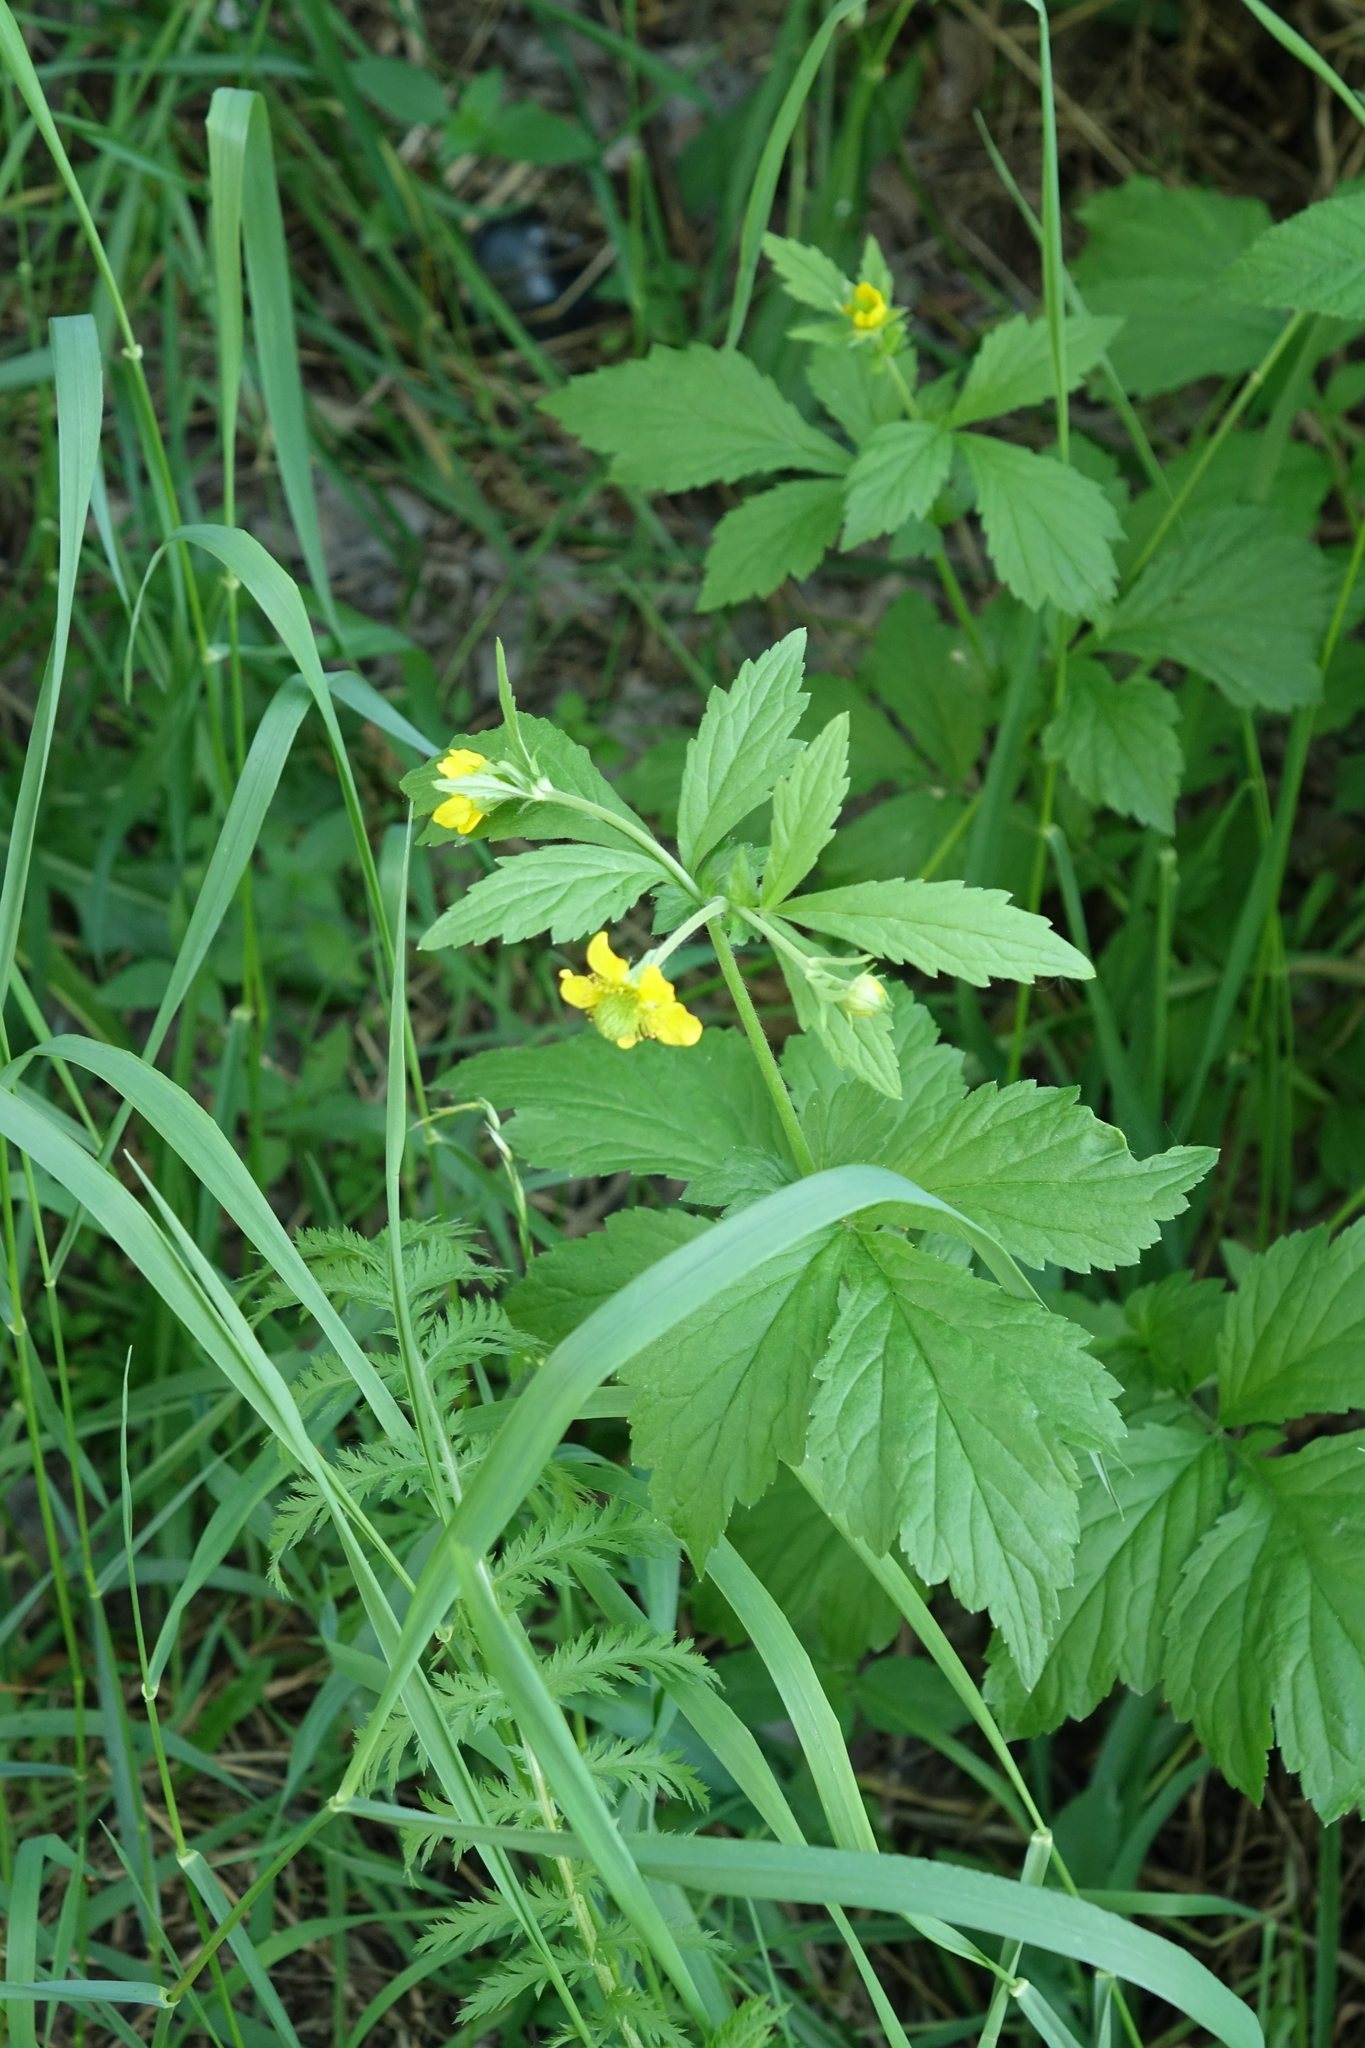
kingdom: Plantae
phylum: Tracheophyta
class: Magnoliopsida
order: Rosales
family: Rosaceae
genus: Geum
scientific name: Geum aleppicum
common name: Yellow avens
